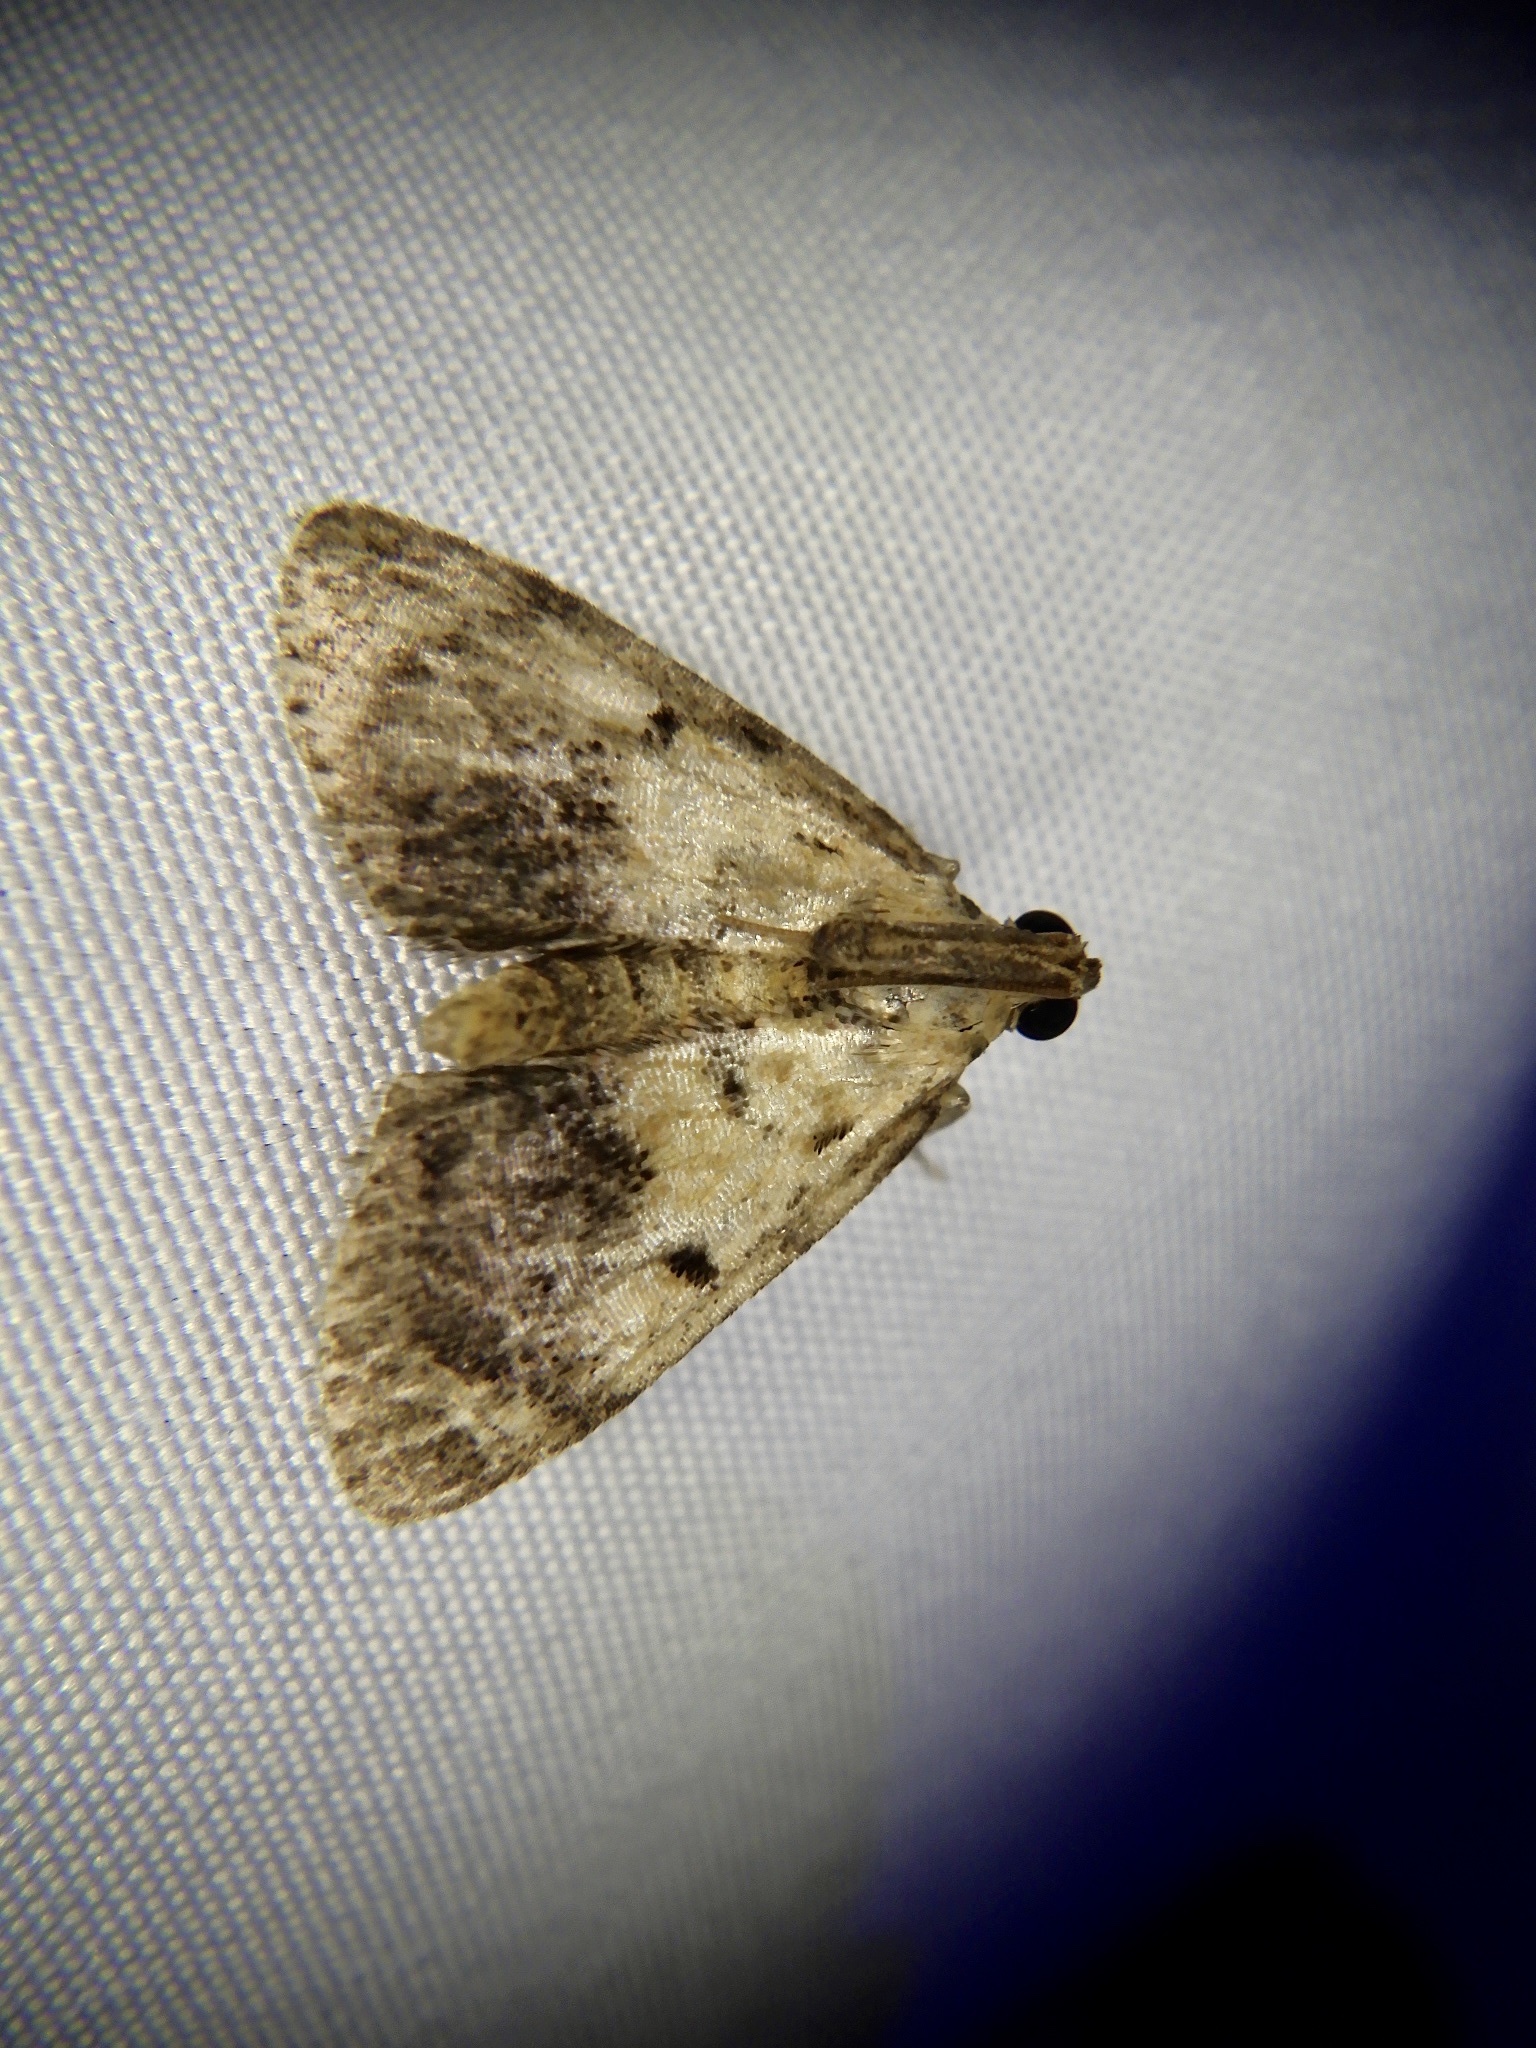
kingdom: Animalia
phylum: Arthropoda
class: Insecta
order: Lepidoptera
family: Pyralidae
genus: Stericta
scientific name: Stericta
